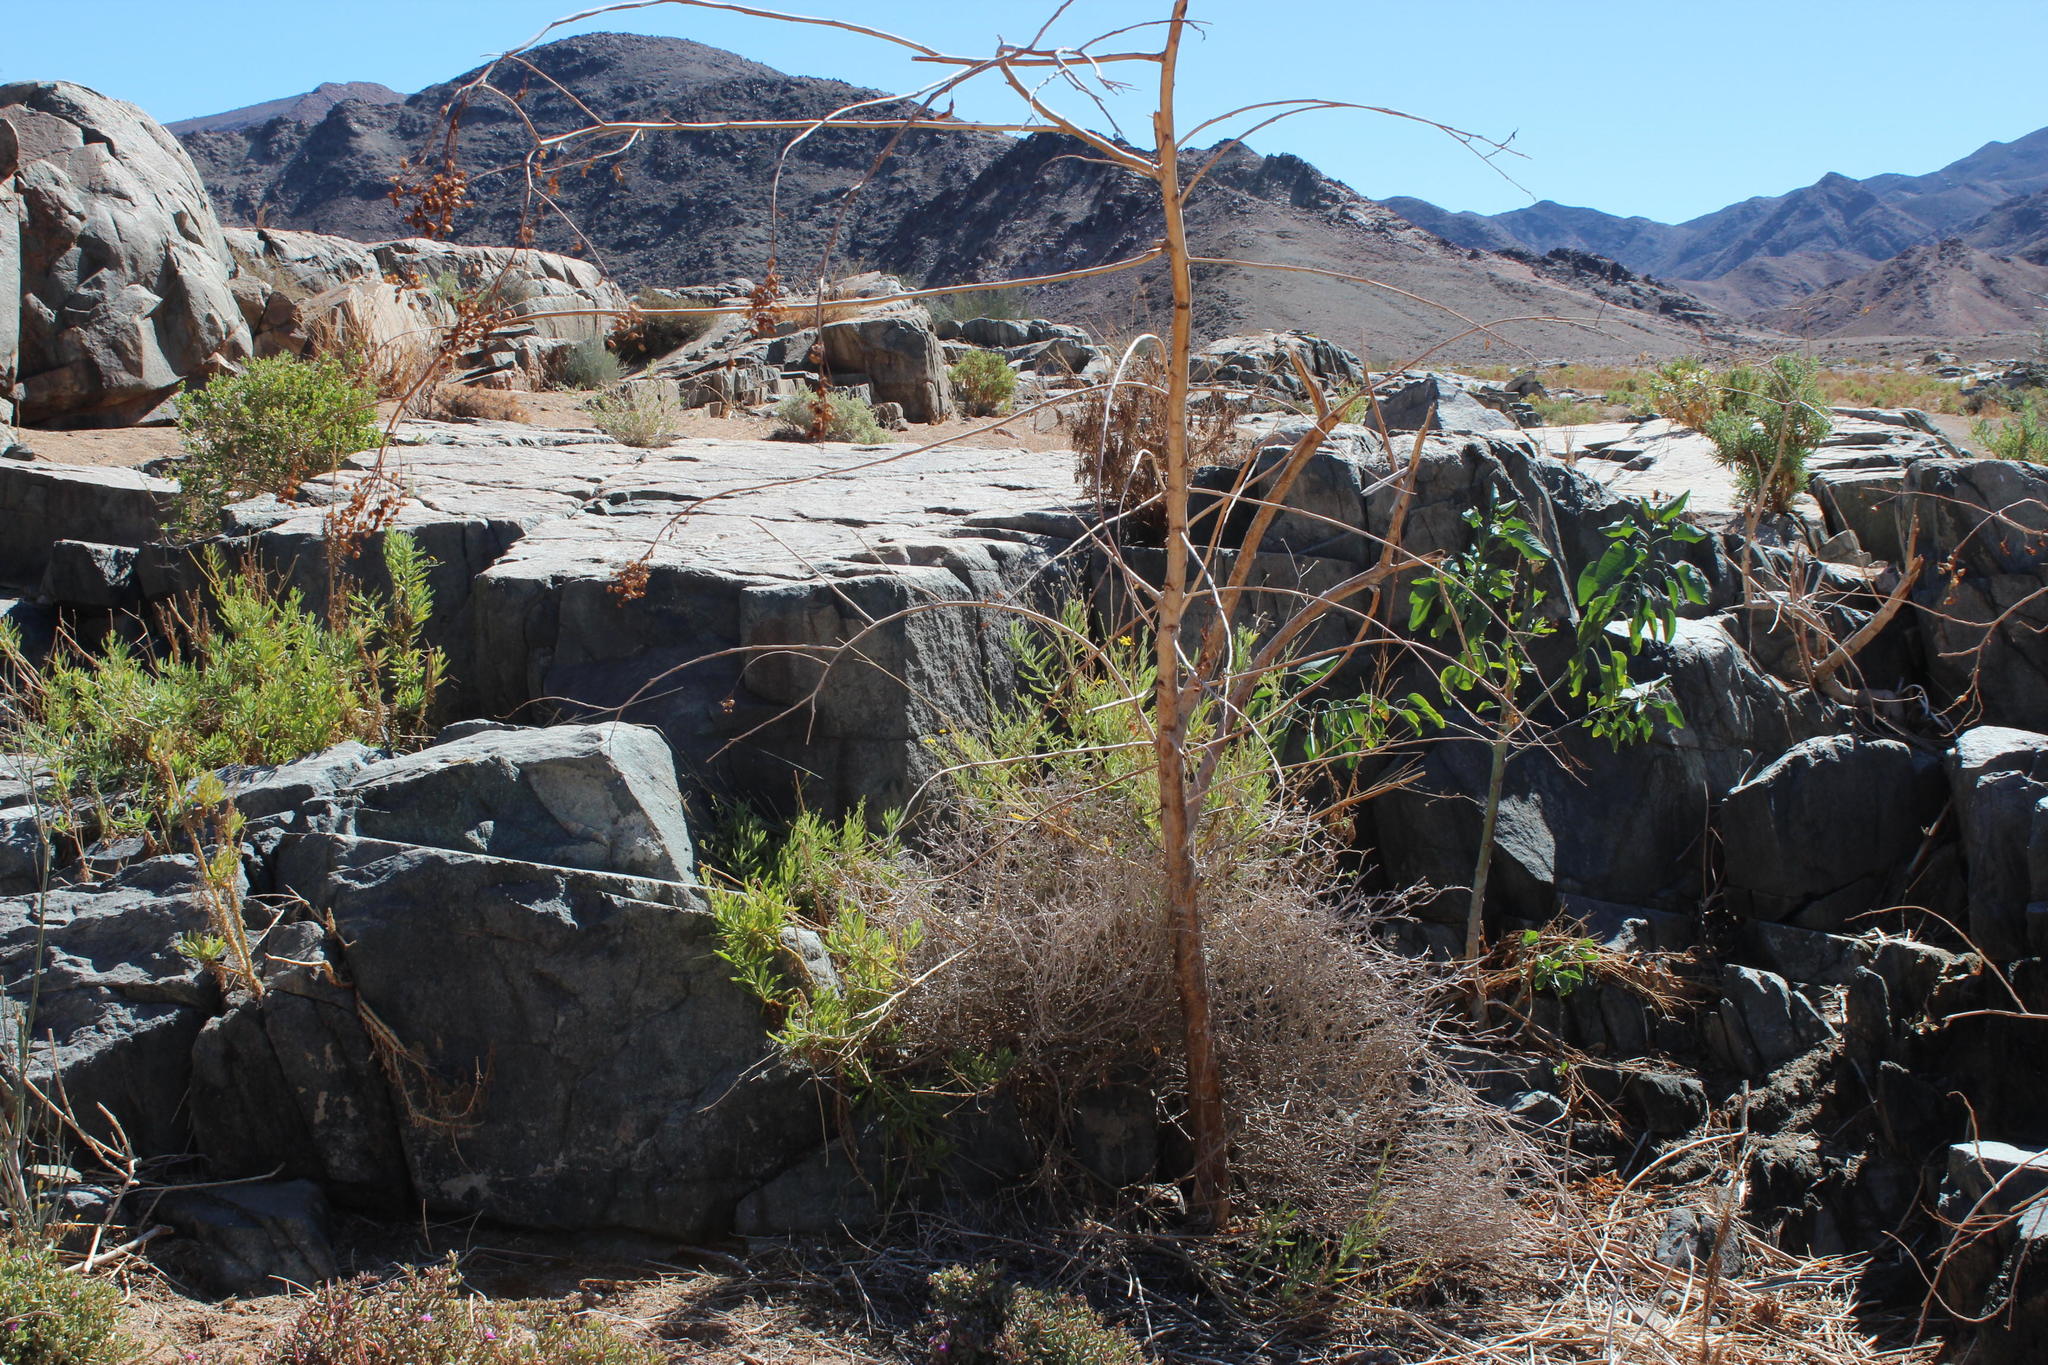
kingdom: Plantae
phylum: Tracheophyta
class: Magnoliopsida
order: Solanales
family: Solanaceae
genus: Nicotiana
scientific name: Nicotiana glauca
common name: Tree tobacco
